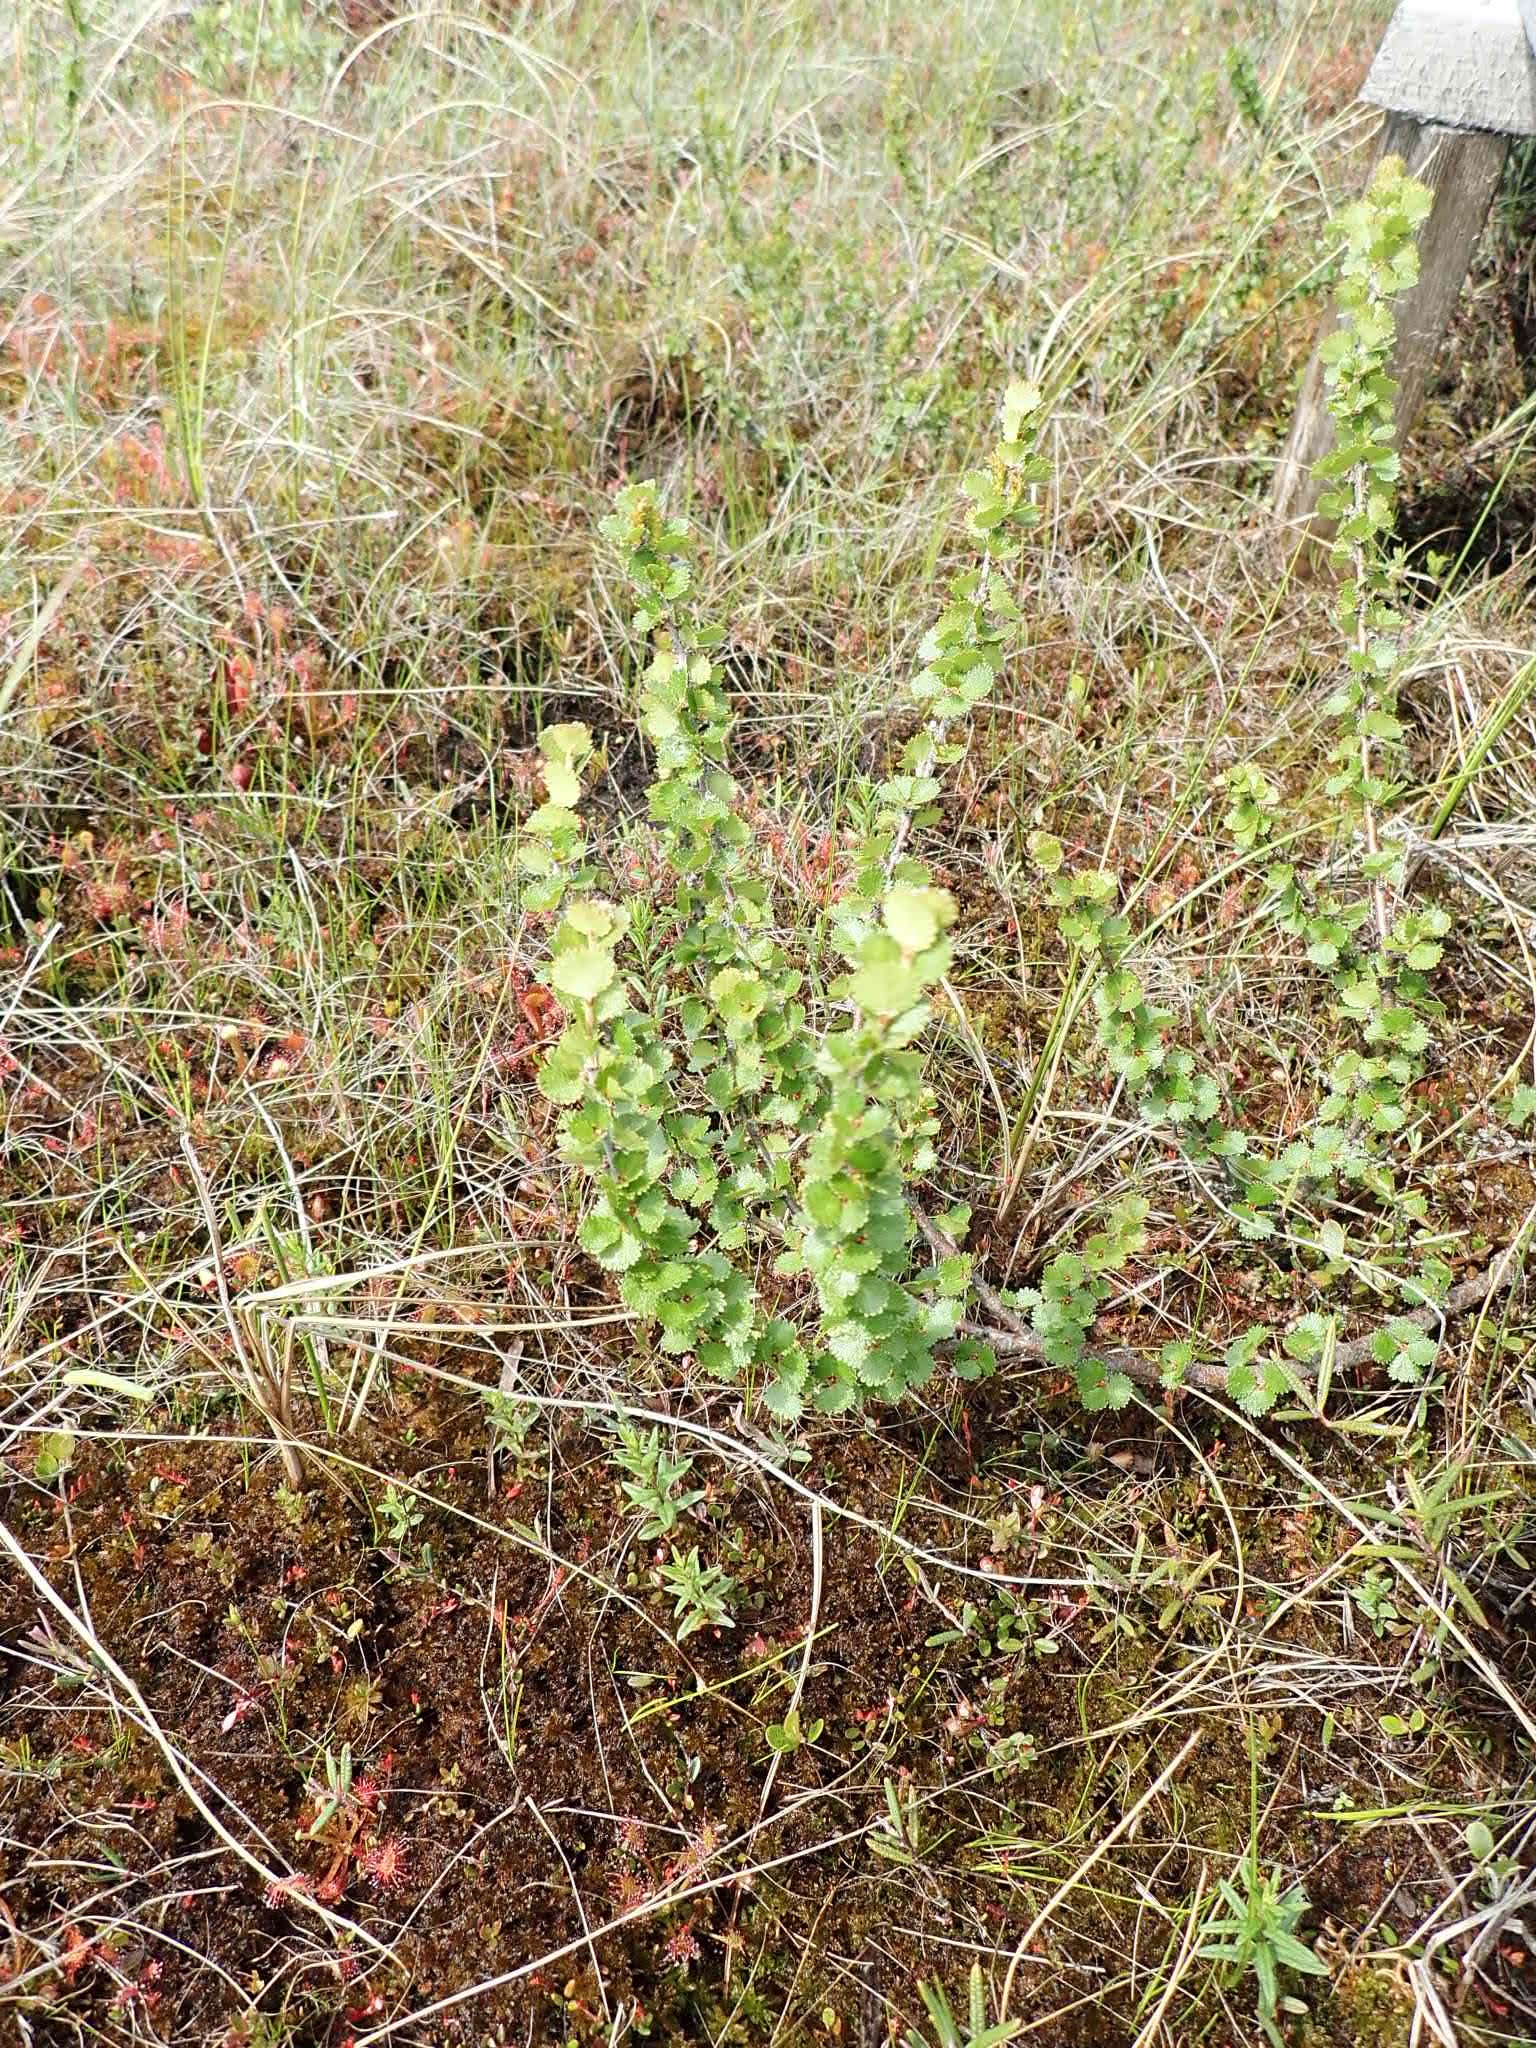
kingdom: Plantae
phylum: Tracheophyta
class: Magnoliopsida
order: Fagales
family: Betulaceae
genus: Betula
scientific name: Betula michauxii
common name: Newfoundland dwarf birch
